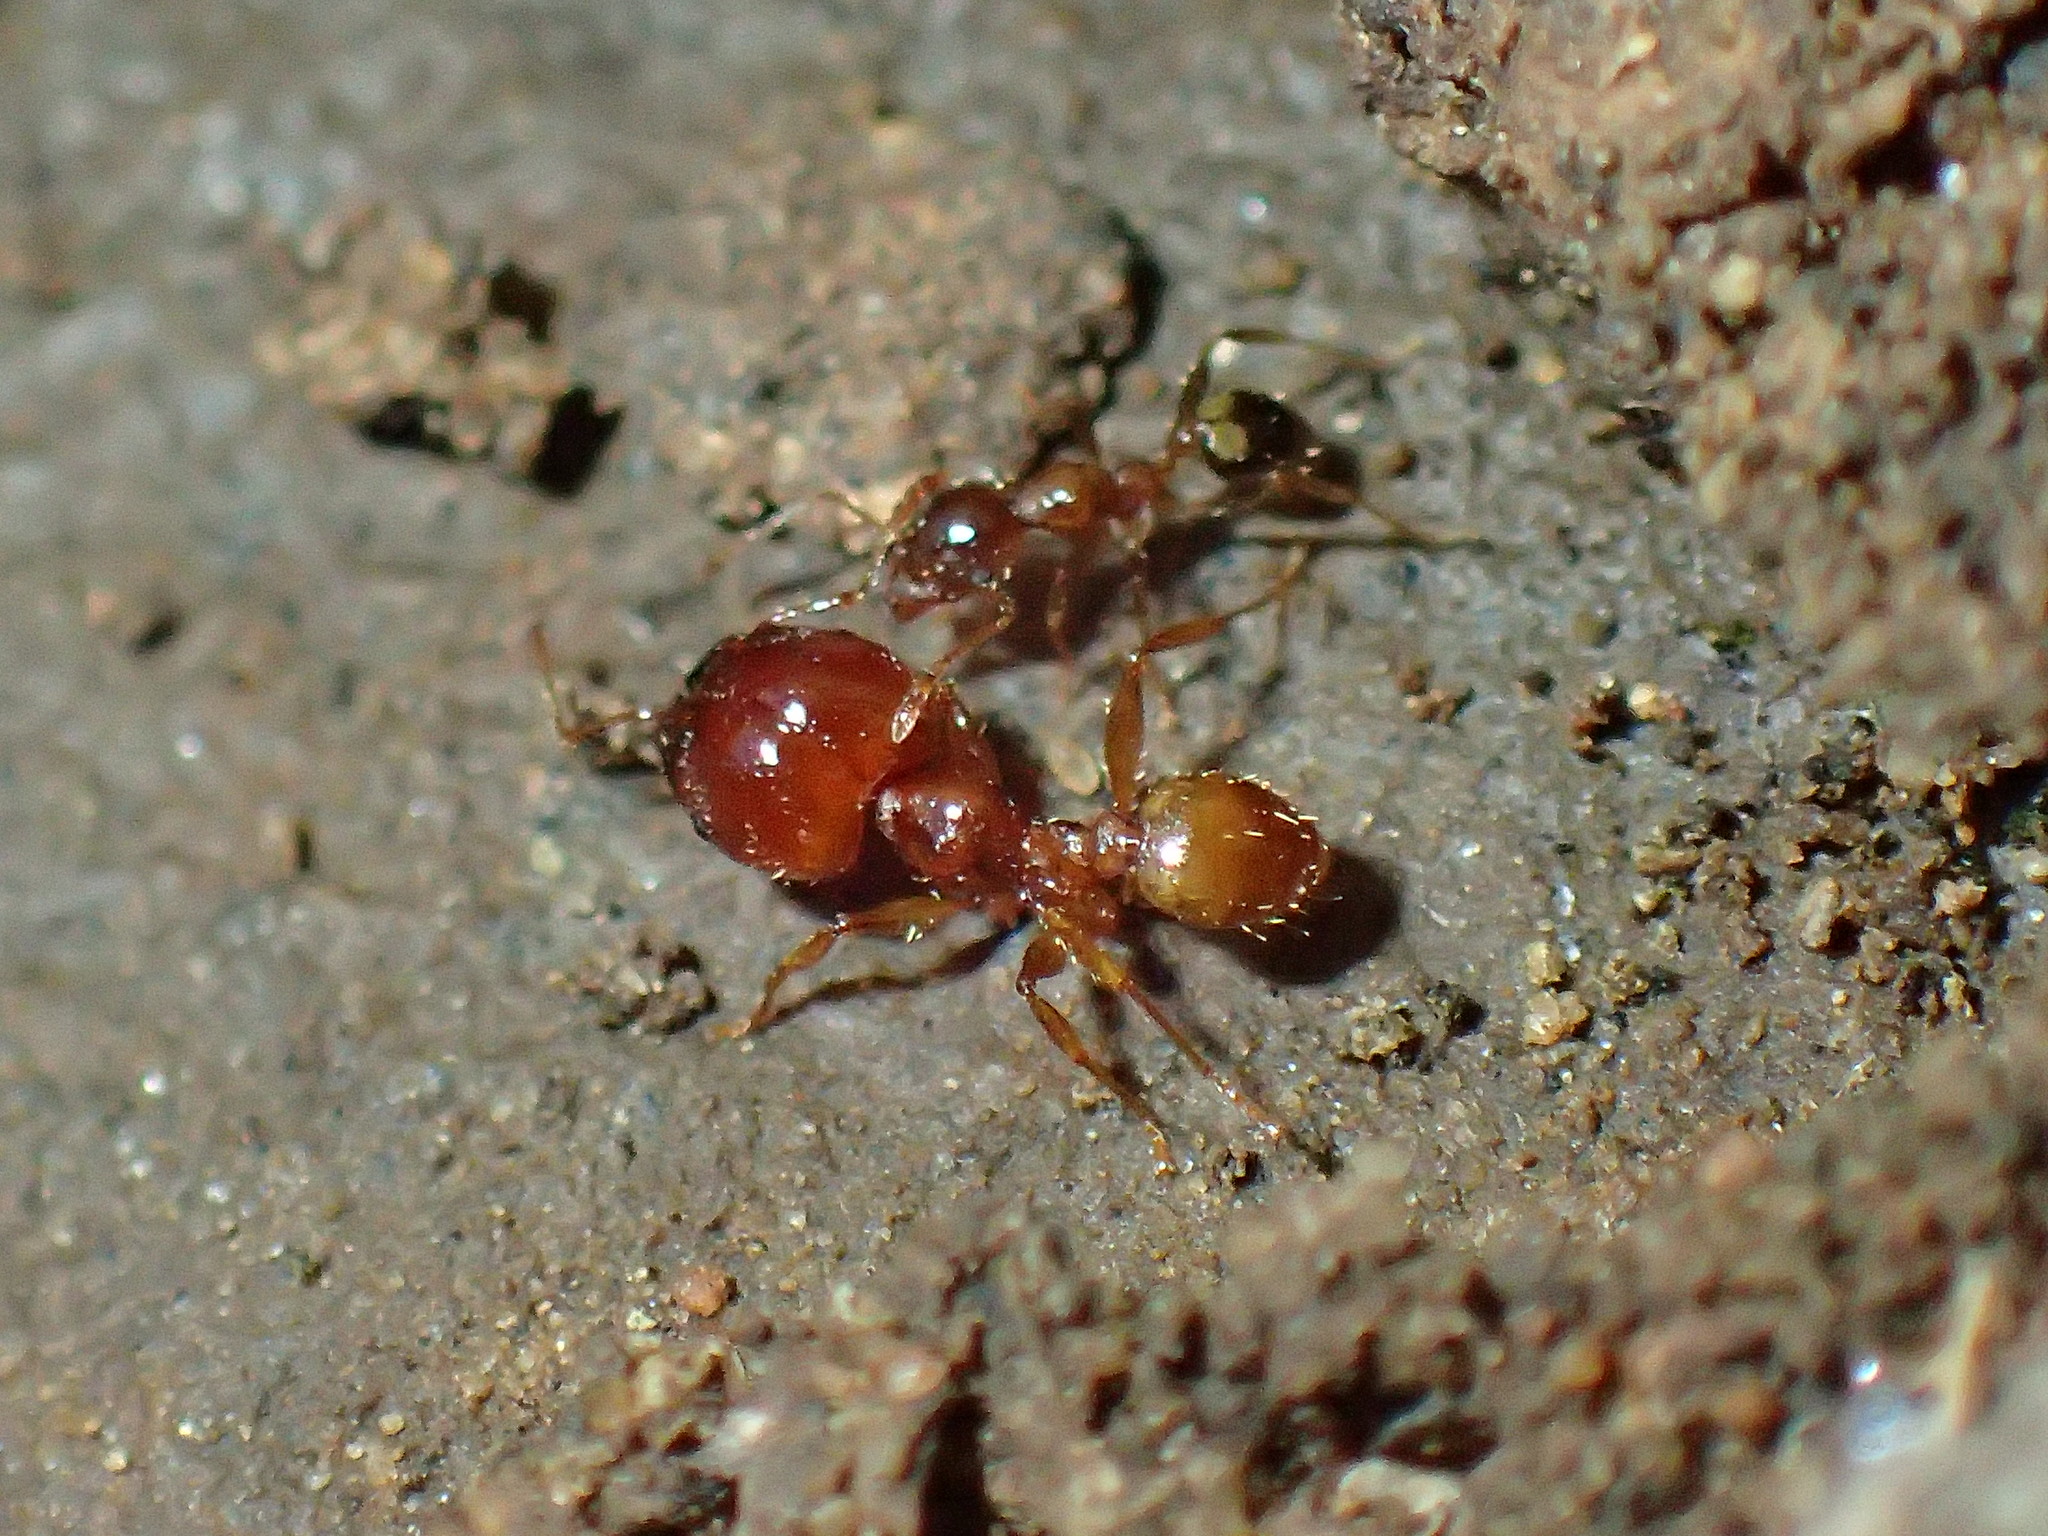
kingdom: Animalia
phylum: Arthropoda
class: Insecta
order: Hymenoptera
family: Formicidae
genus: Pheidole
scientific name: Pheidole megacephala
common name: Bigheaded ant
